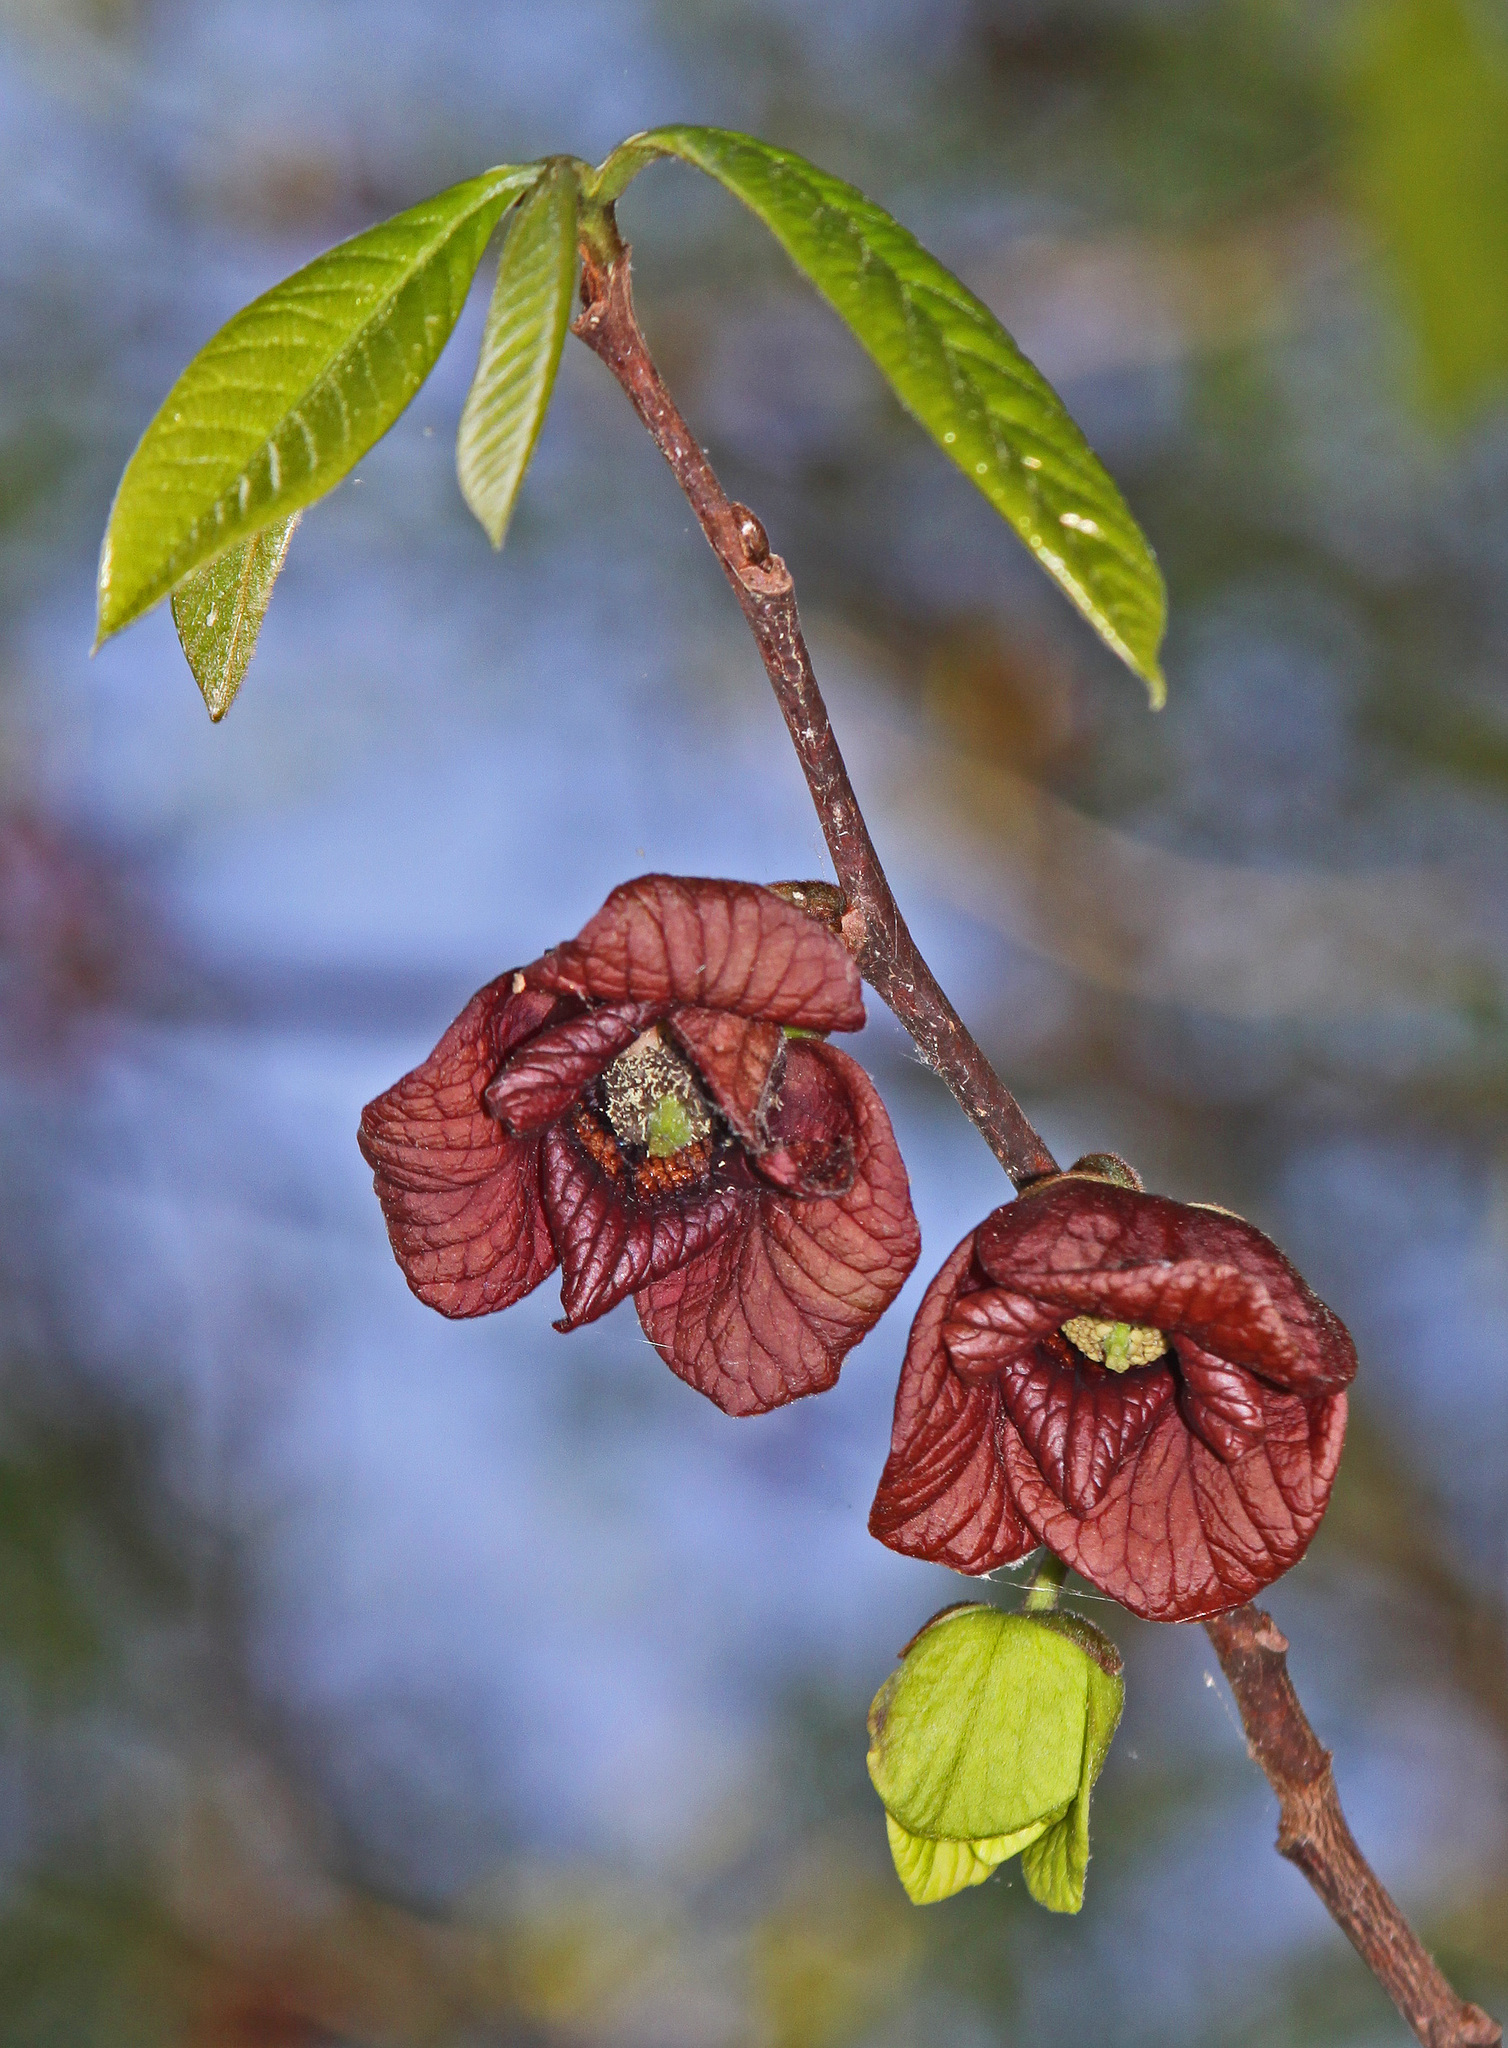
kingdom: Plantae
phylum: Tracheophyta
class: Magnoliopsida
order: Magnoliales
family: Annonaceae
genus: Asimina
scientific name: Asimina triloba
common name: Dog-banana
